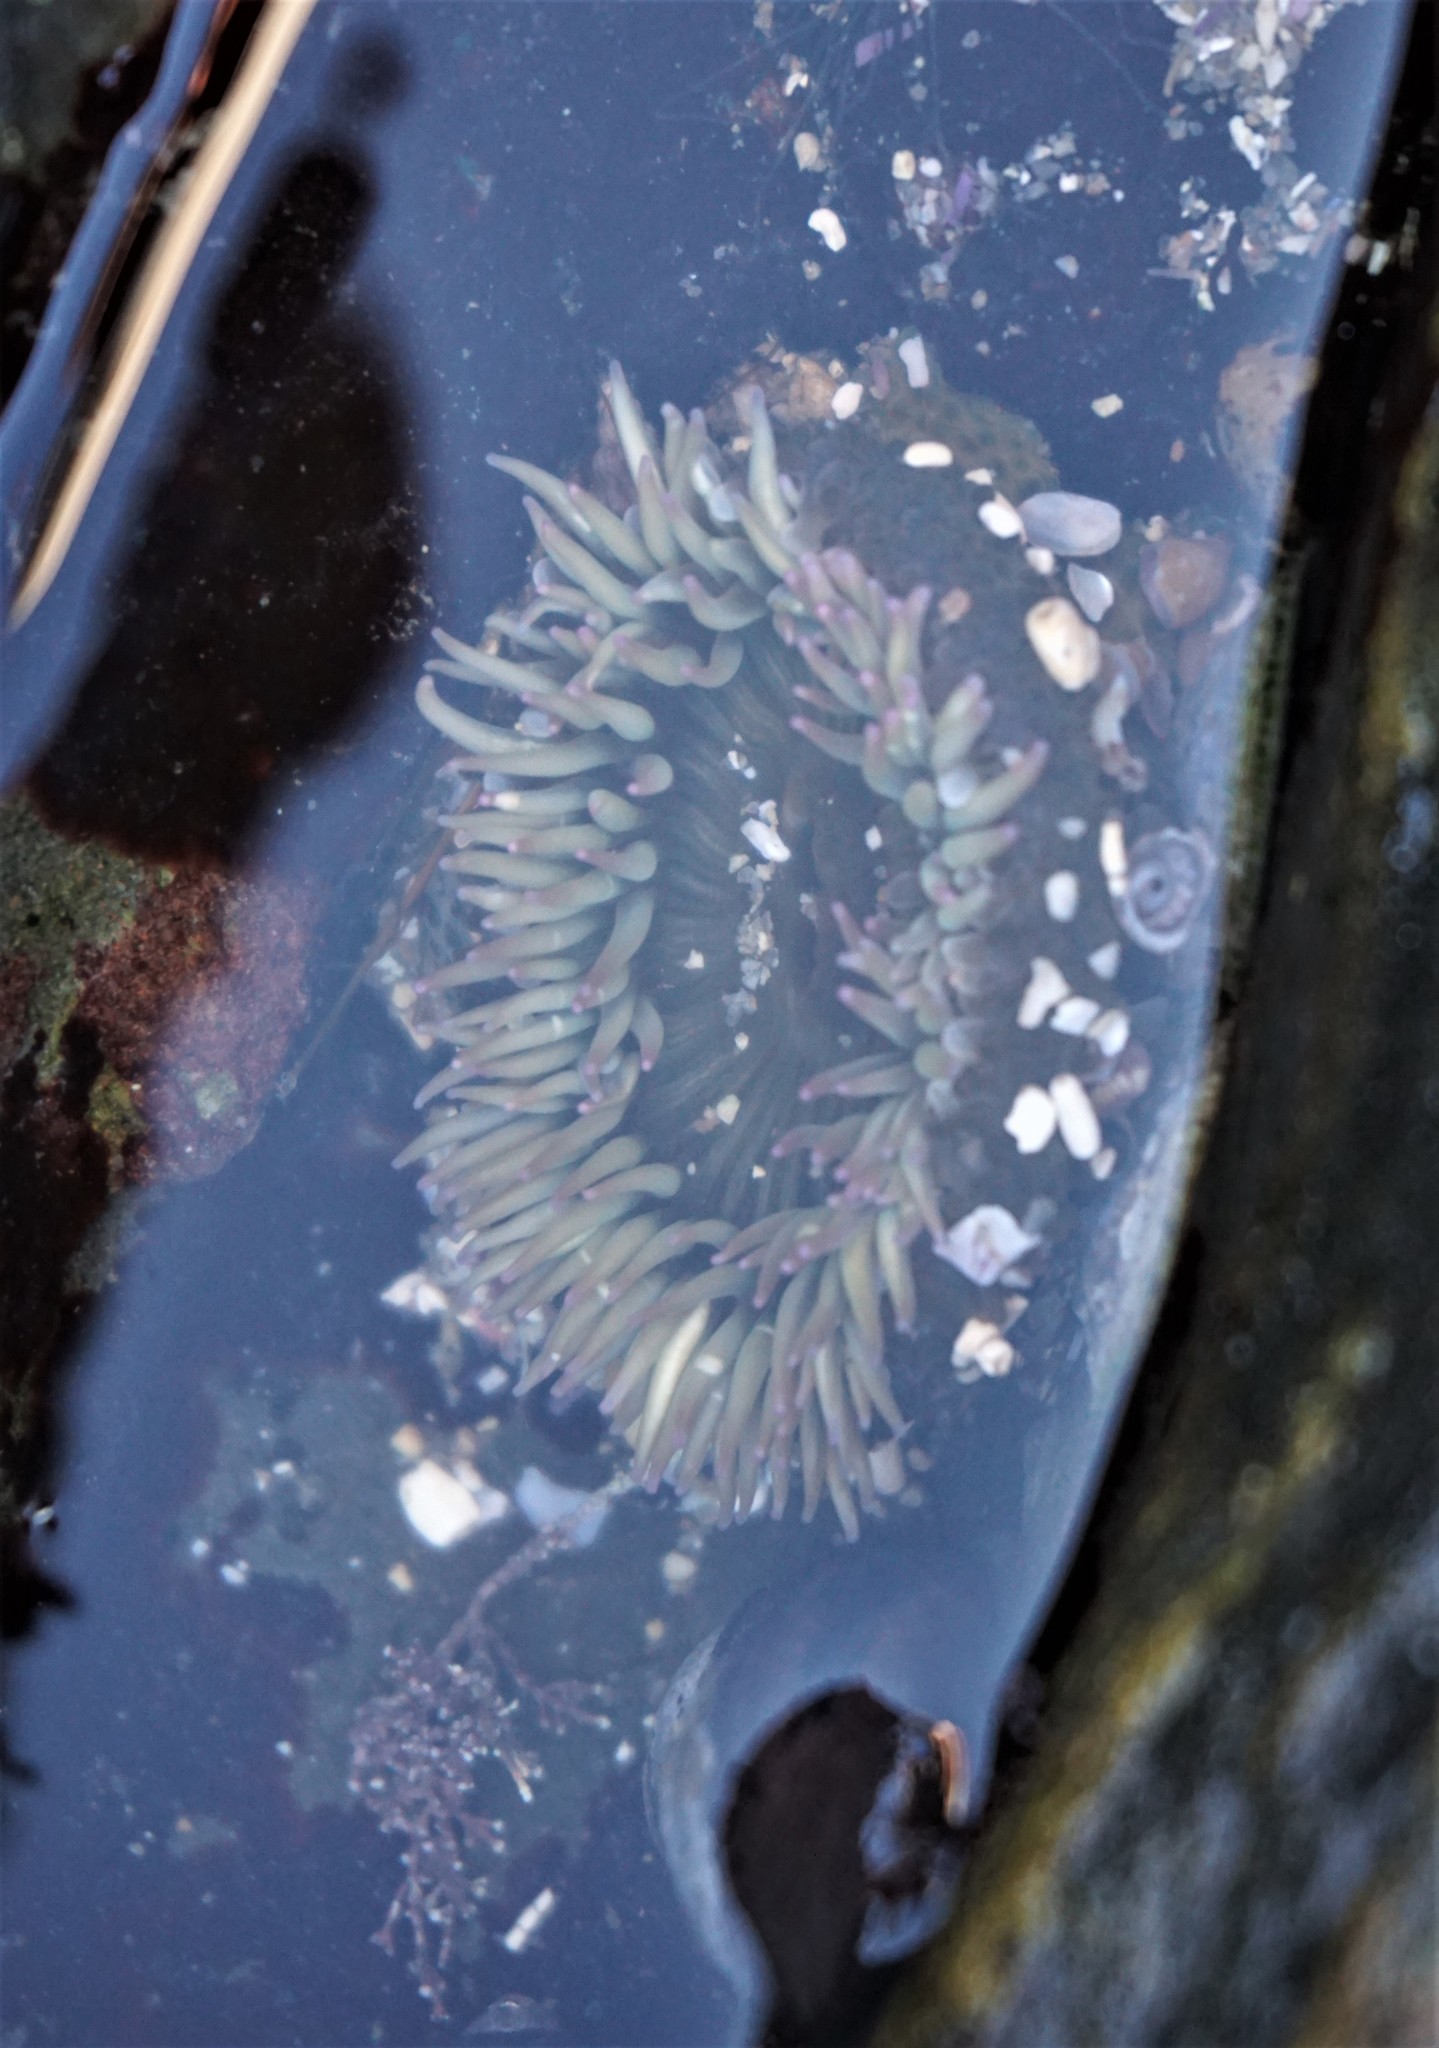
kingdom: Animalia
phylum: Cnidaria
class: Anthozoa
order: Actiniaria
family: Actiniidae
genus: Anthopleura
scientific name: Anthopleura elegantissima
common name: Clonal anemone
